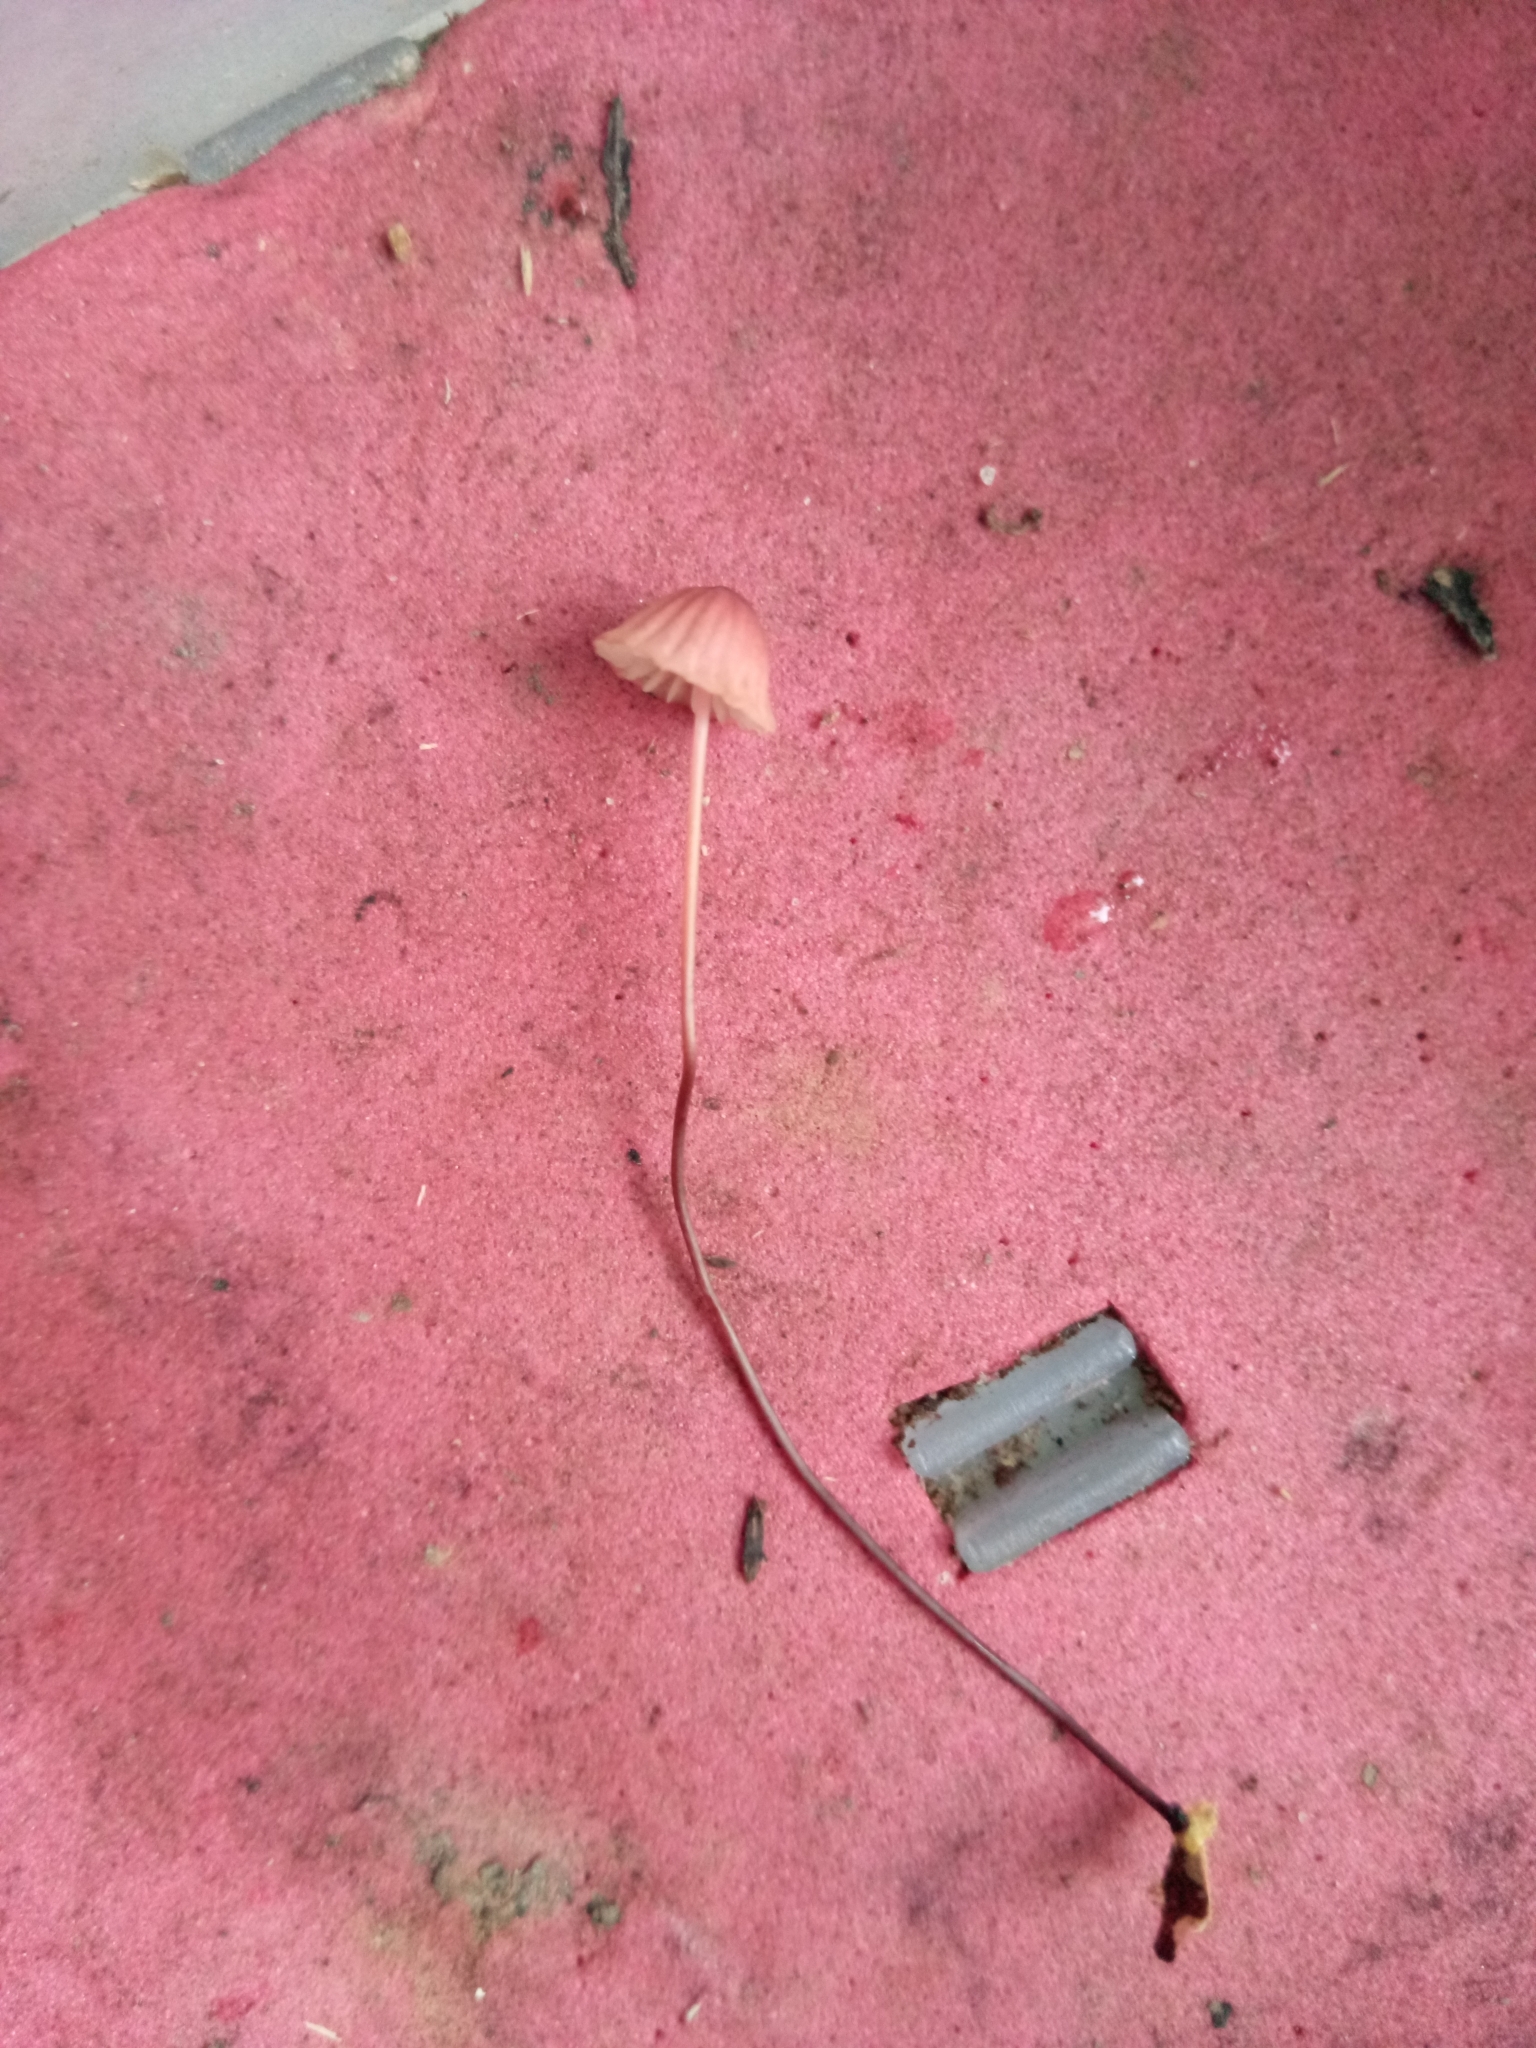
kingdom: Fungi
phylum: Basidiomycota
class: Agaricomycetes
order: Agaricales
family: Marasmiaceae
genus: Marasmius
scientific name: Marasmius pulcherripes
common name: Rosy parachute
